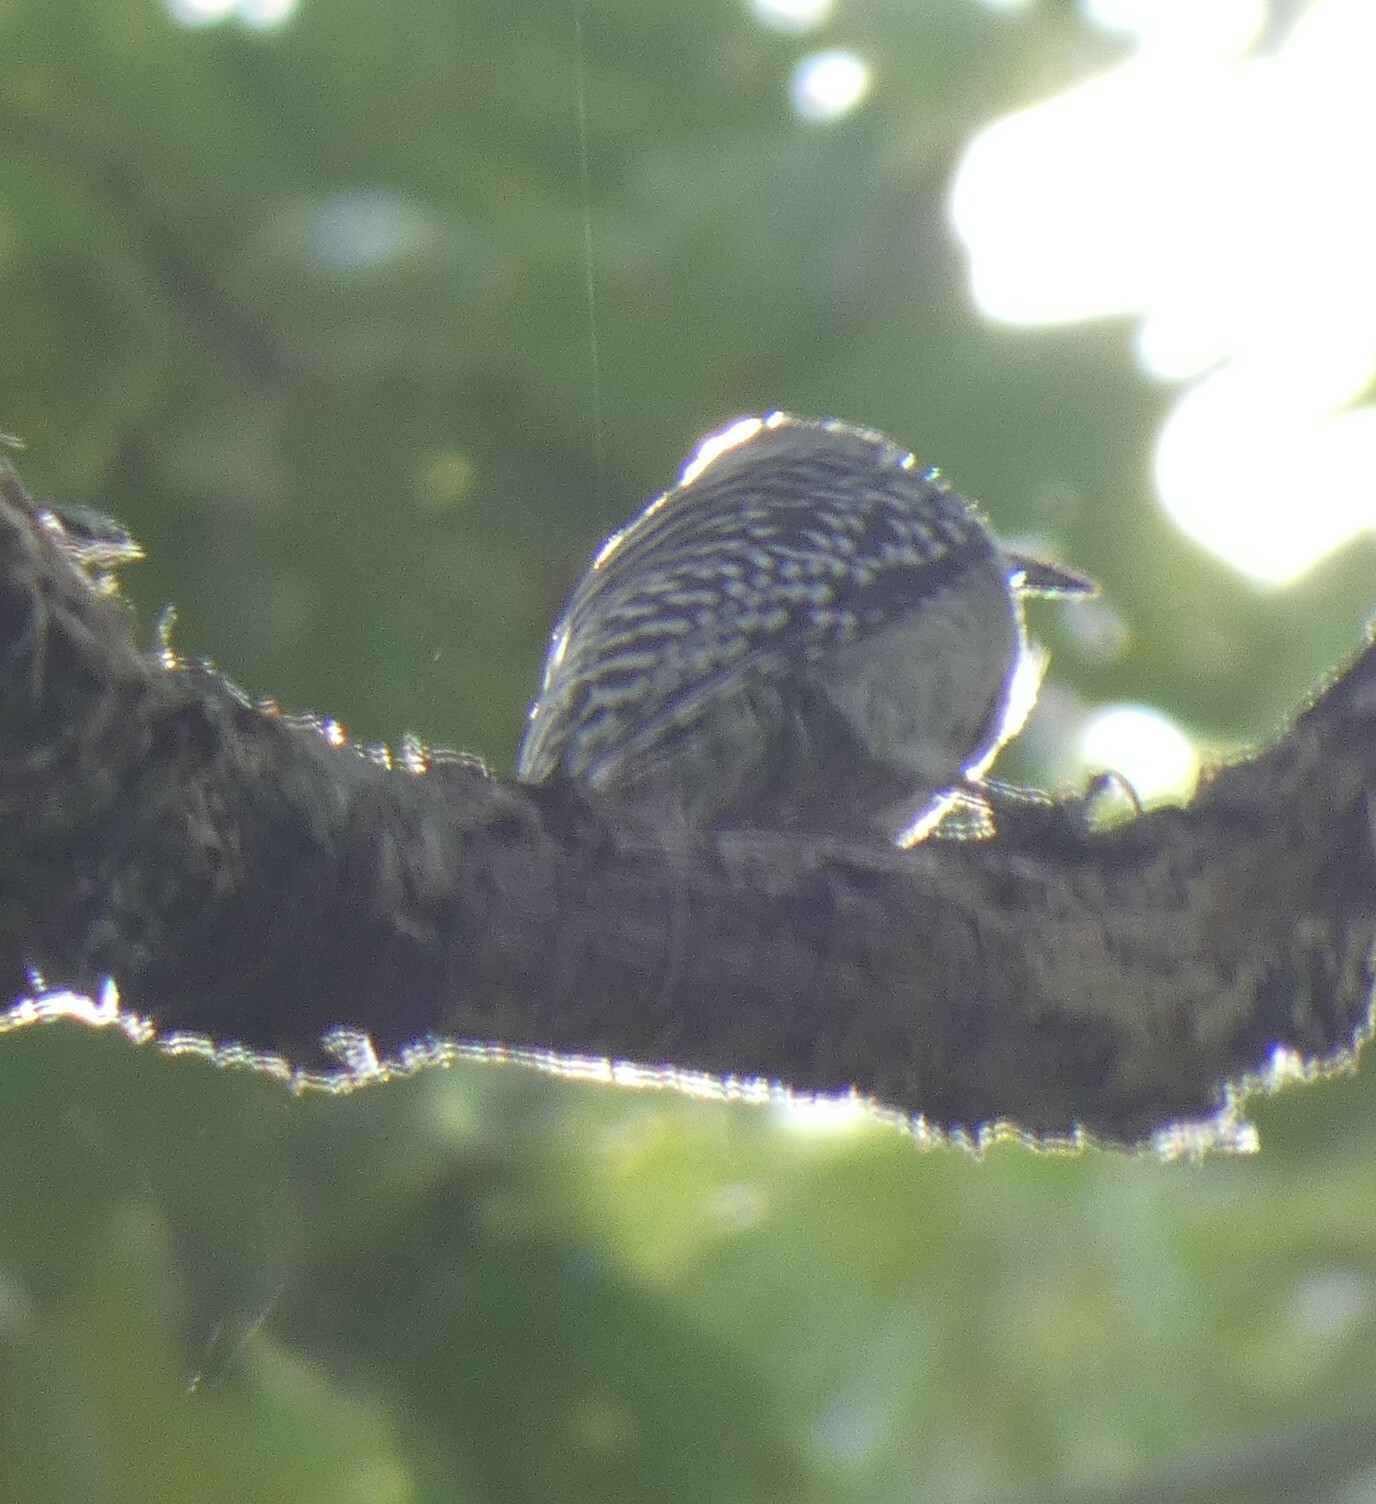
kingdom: Animalia
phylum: Chordata
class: Aves
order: Piciformes
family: Picidae
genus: Melanerpes
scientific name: Melanerpes carolinus
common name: Red-bellied woodpecker
